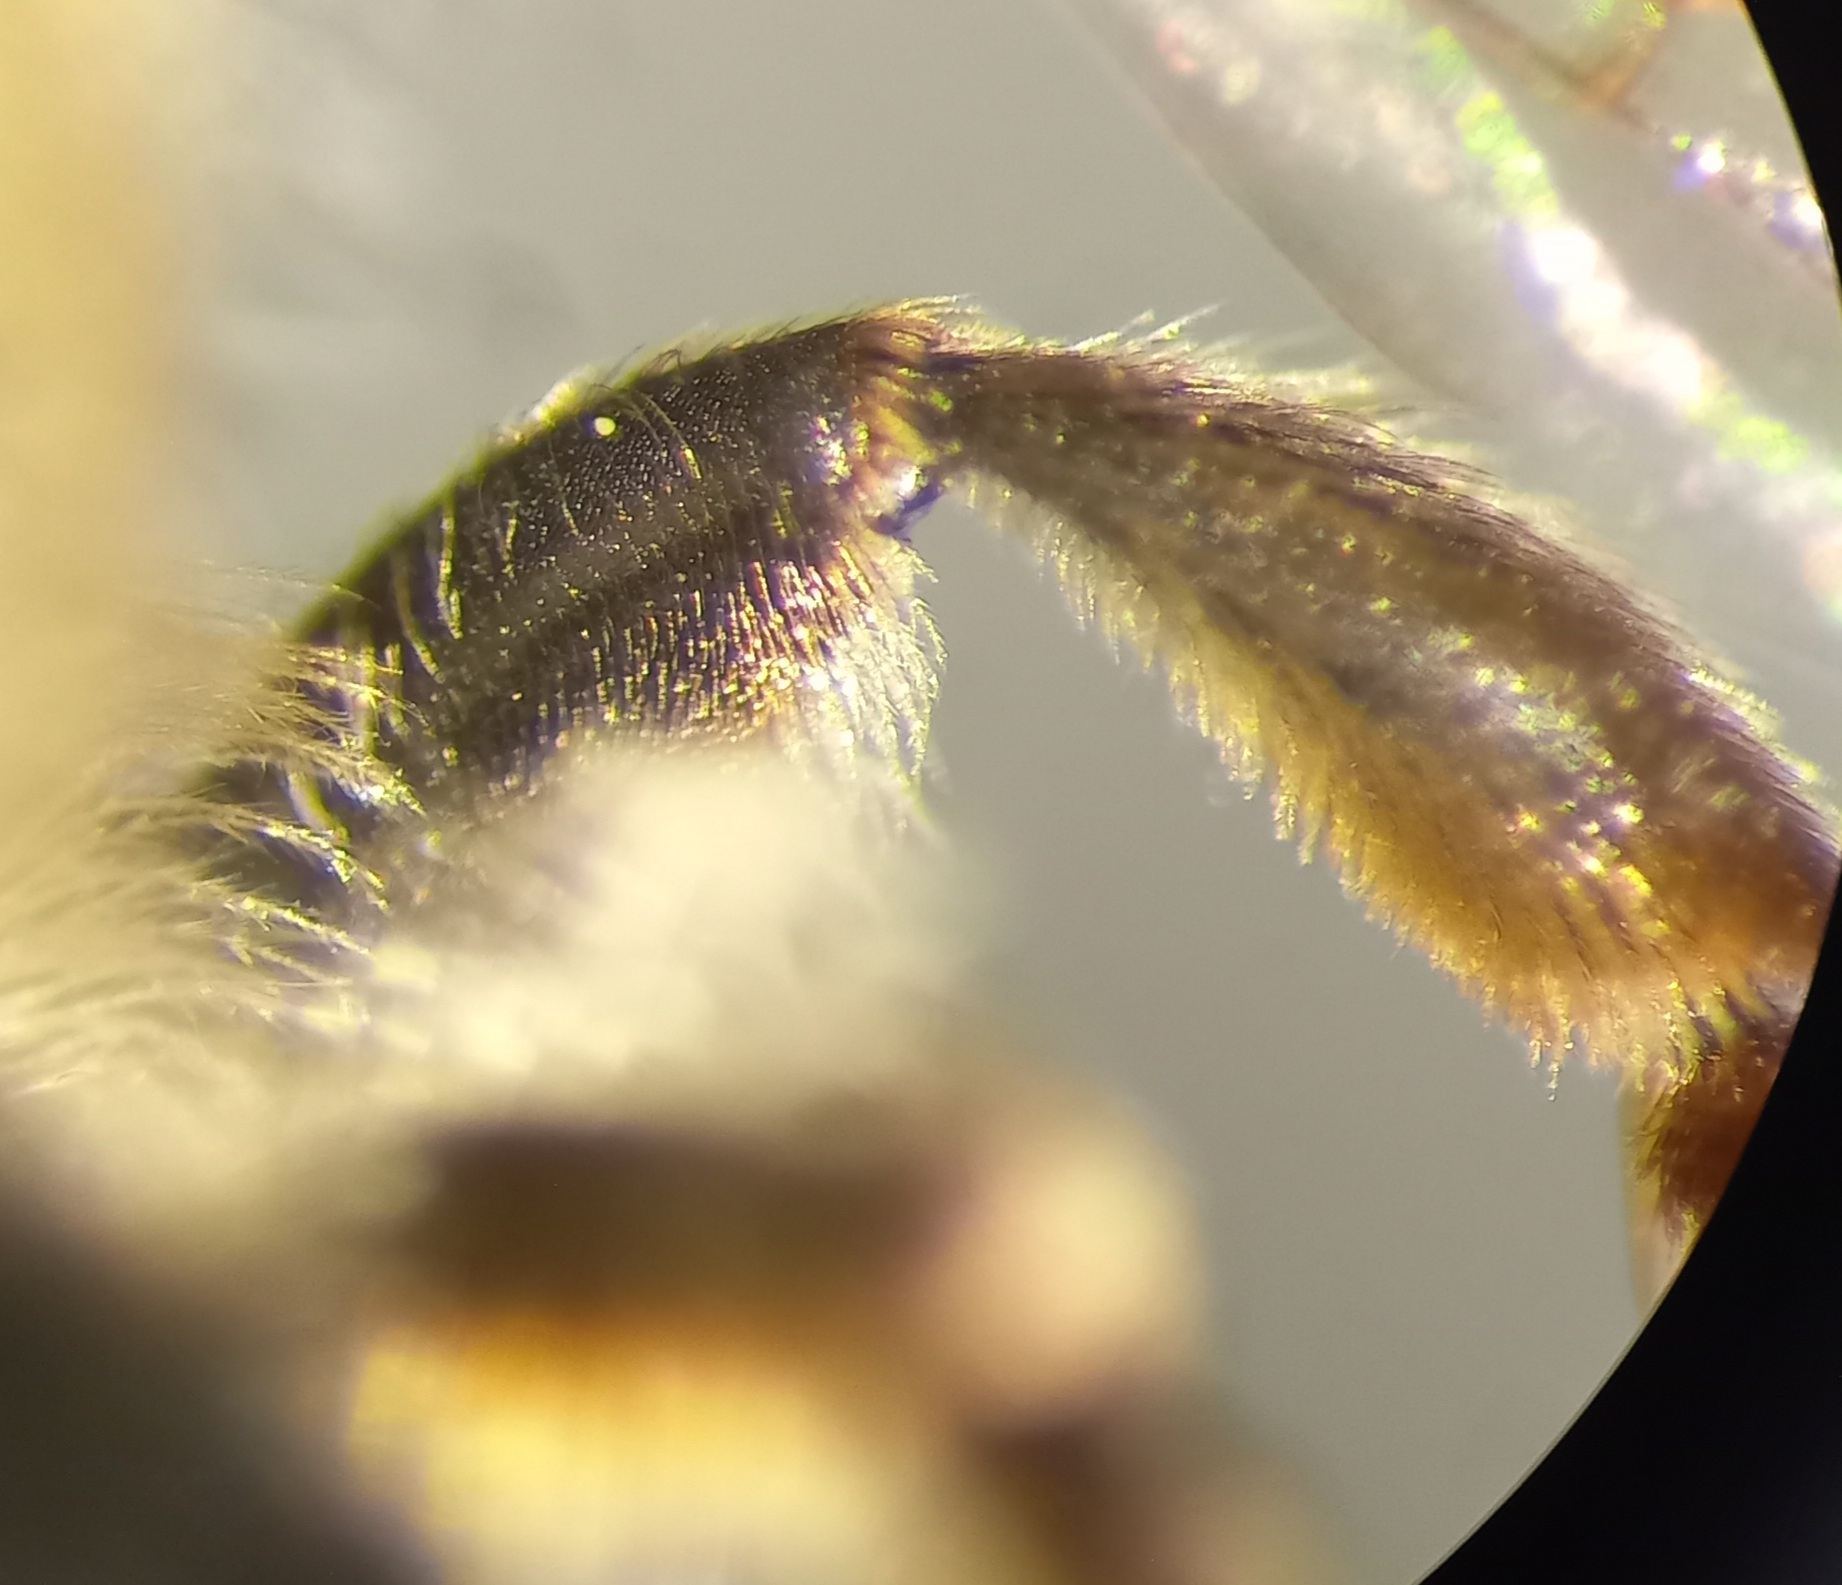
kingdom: Animalia
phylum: Arthropoda
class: Insecta
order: Hymenoptera
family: Andrenidae
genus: Andrena
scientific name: Andrena dorsata
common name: Short-fringed mining bee
